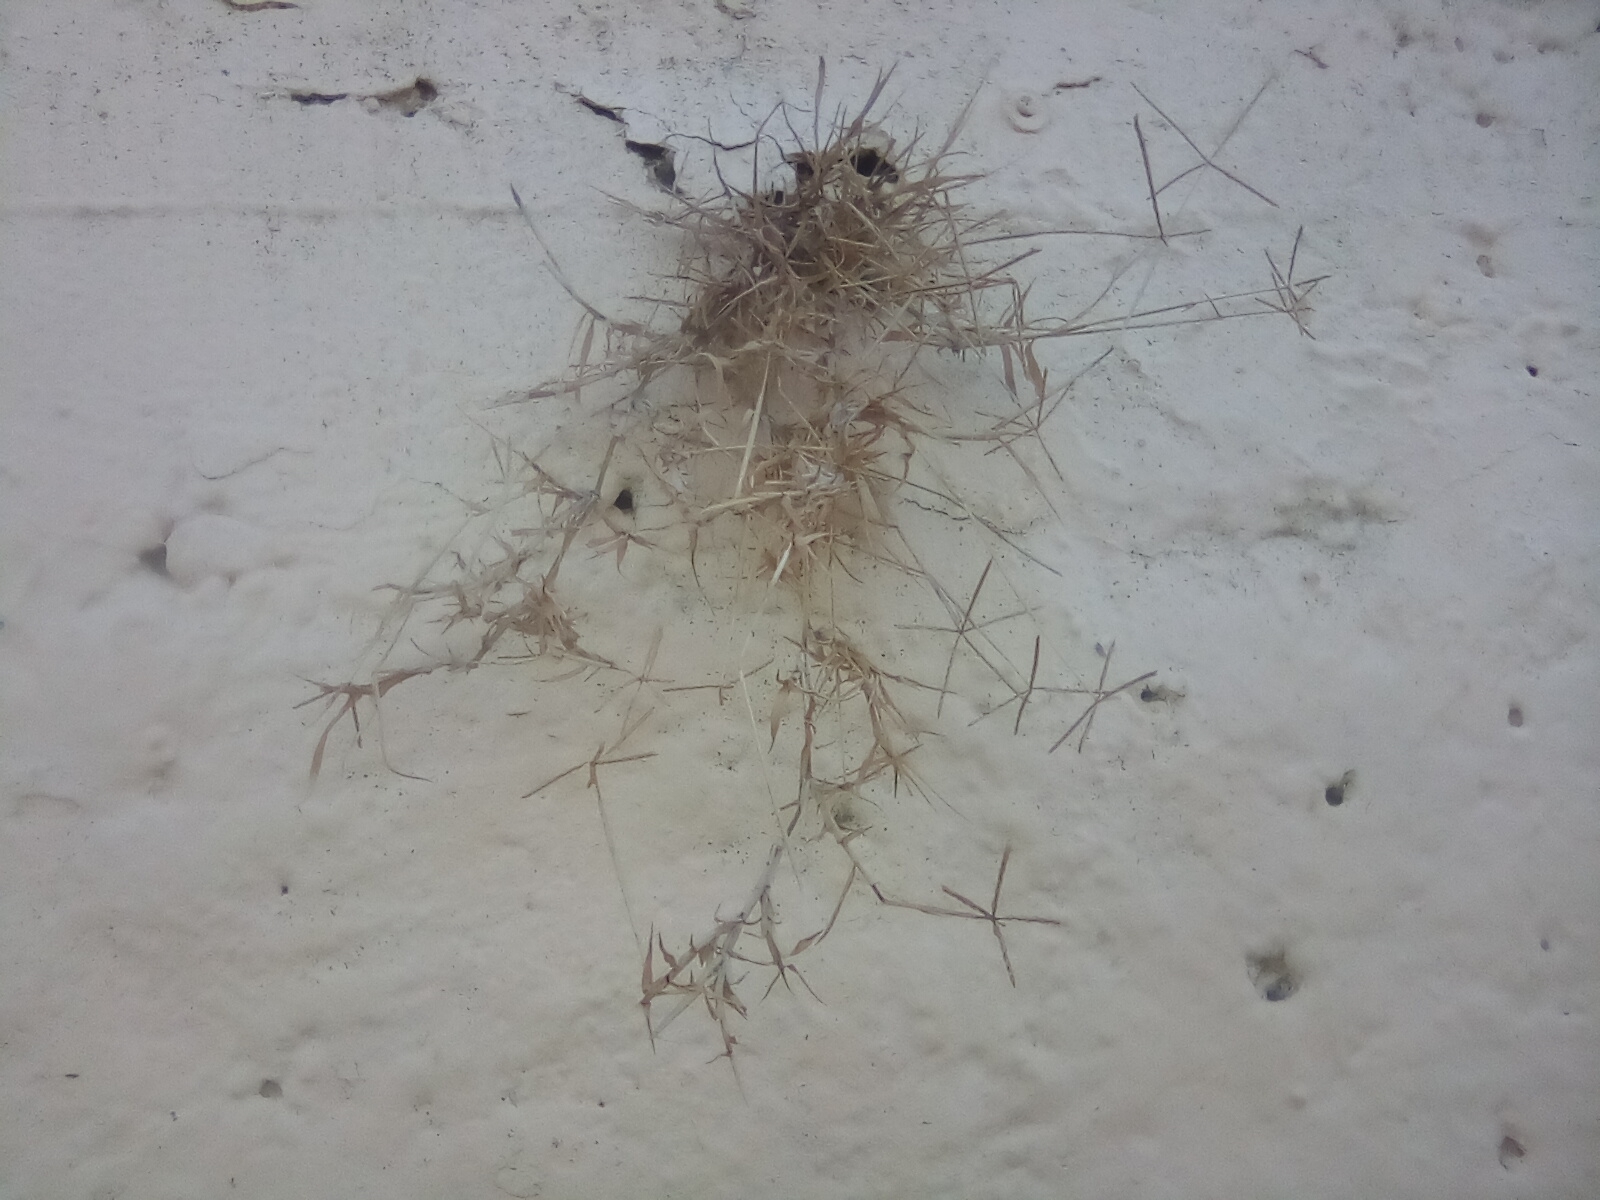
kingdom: Plantae
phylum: Tracheophyta
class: Liliopsida
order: Poales
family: Poaceae
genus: Cynodon
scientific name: Cynodon dactylon
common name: Bermuda grass
